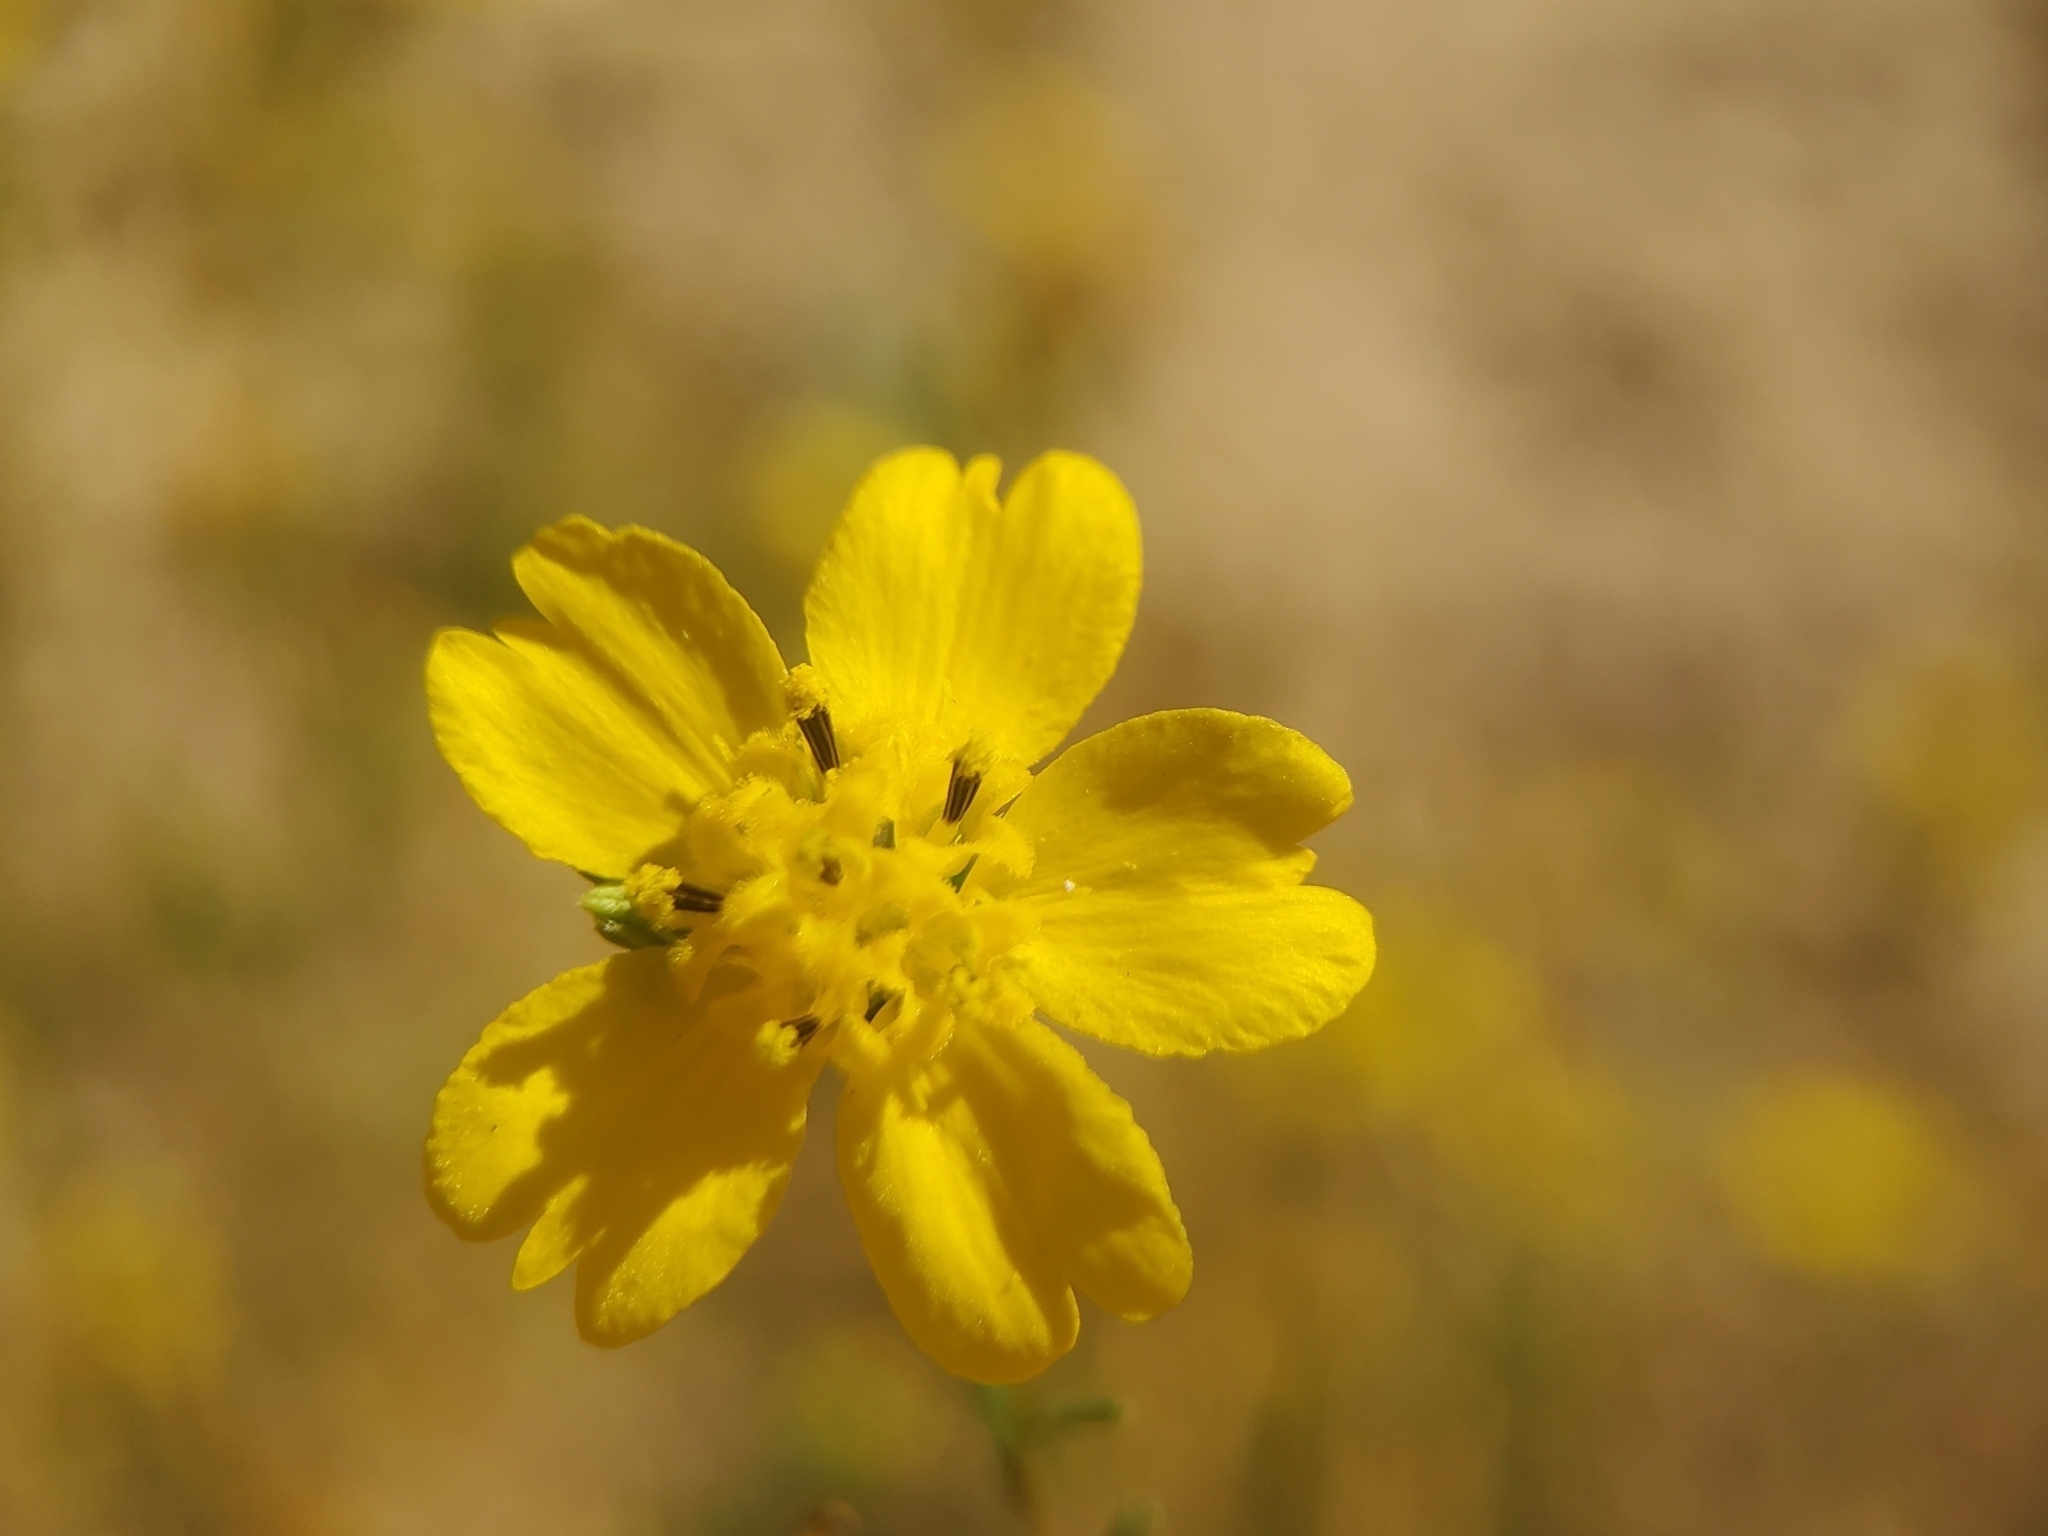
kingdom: Plantae
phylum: Tracheophyta
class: Magnoliopsida
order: Asterales
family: Asteraceae
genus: Deinandra
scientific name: Deinandra fasciculata
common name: Clustered tarweed
